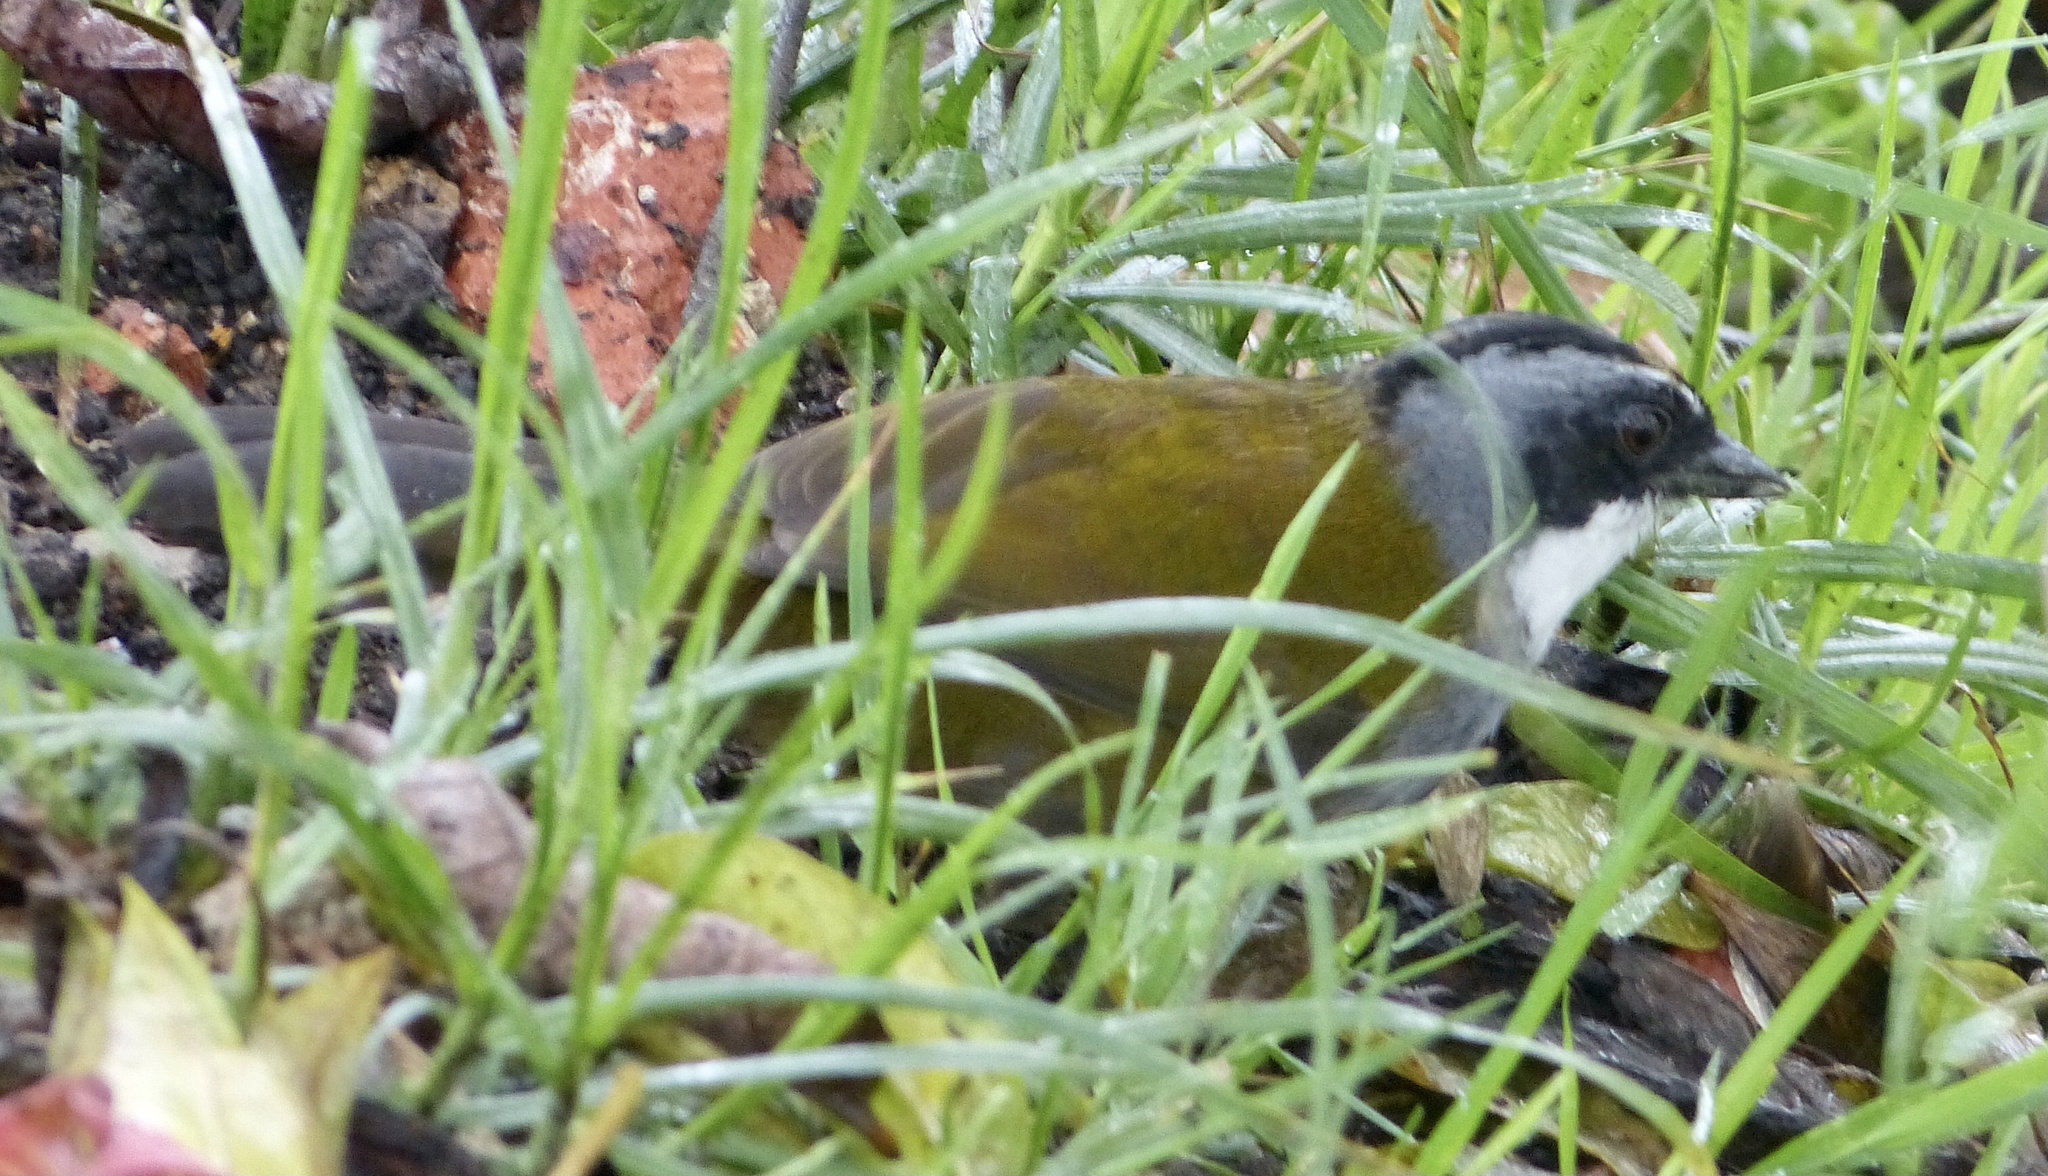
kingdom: Animalia
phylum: Chordata
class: Aves
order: Passeriformes
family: Passerellidae
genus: Arremon
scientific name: Arremon assimilis
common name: Grey-browed brushfinch
